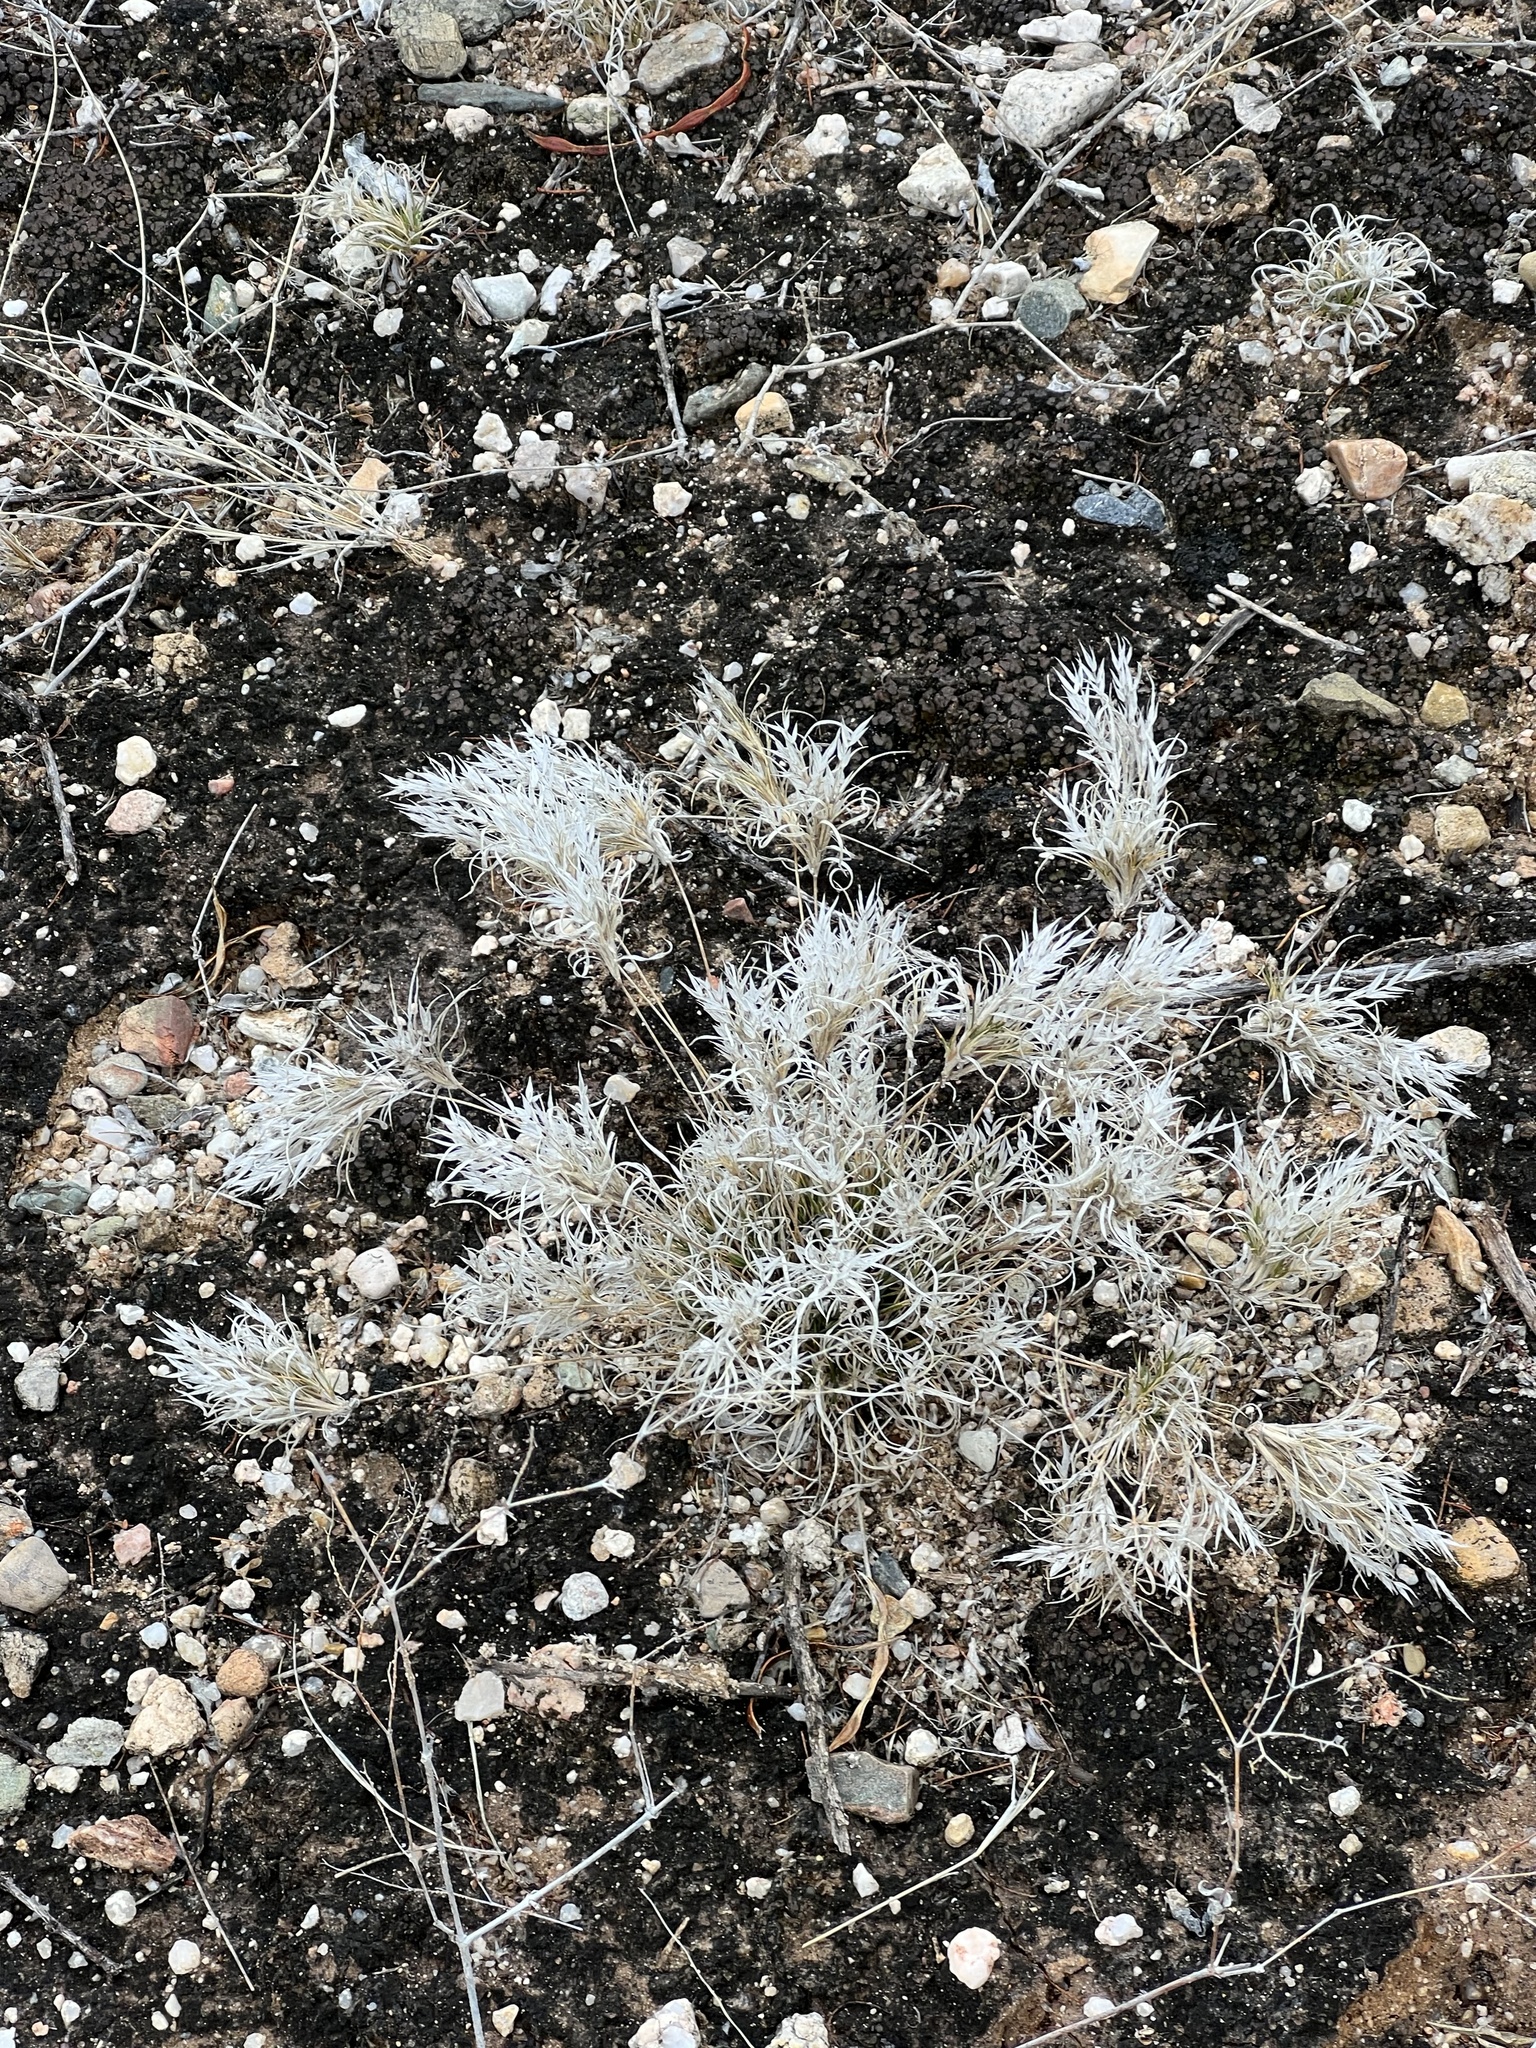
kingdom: Plantae
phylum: Tracheophyta
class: Liliopsida
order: Poales
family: Poaceae
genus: Dasyochloa
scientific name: Dasyochloa pulchella
